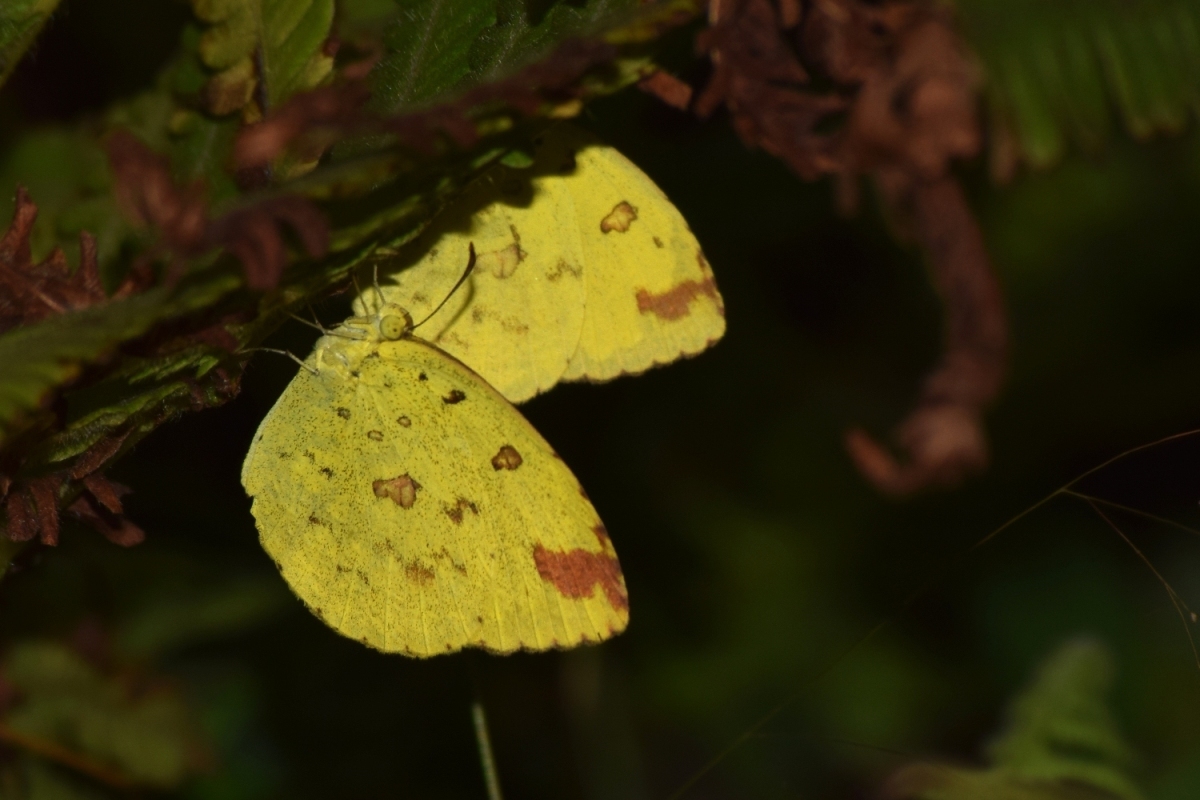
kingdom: Animalia
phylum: Arthropoda
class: Insecta
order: Lepidoptera
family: Pieridae
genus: Eurema
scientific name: Eurema hecabe
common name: Pale grass yellow
